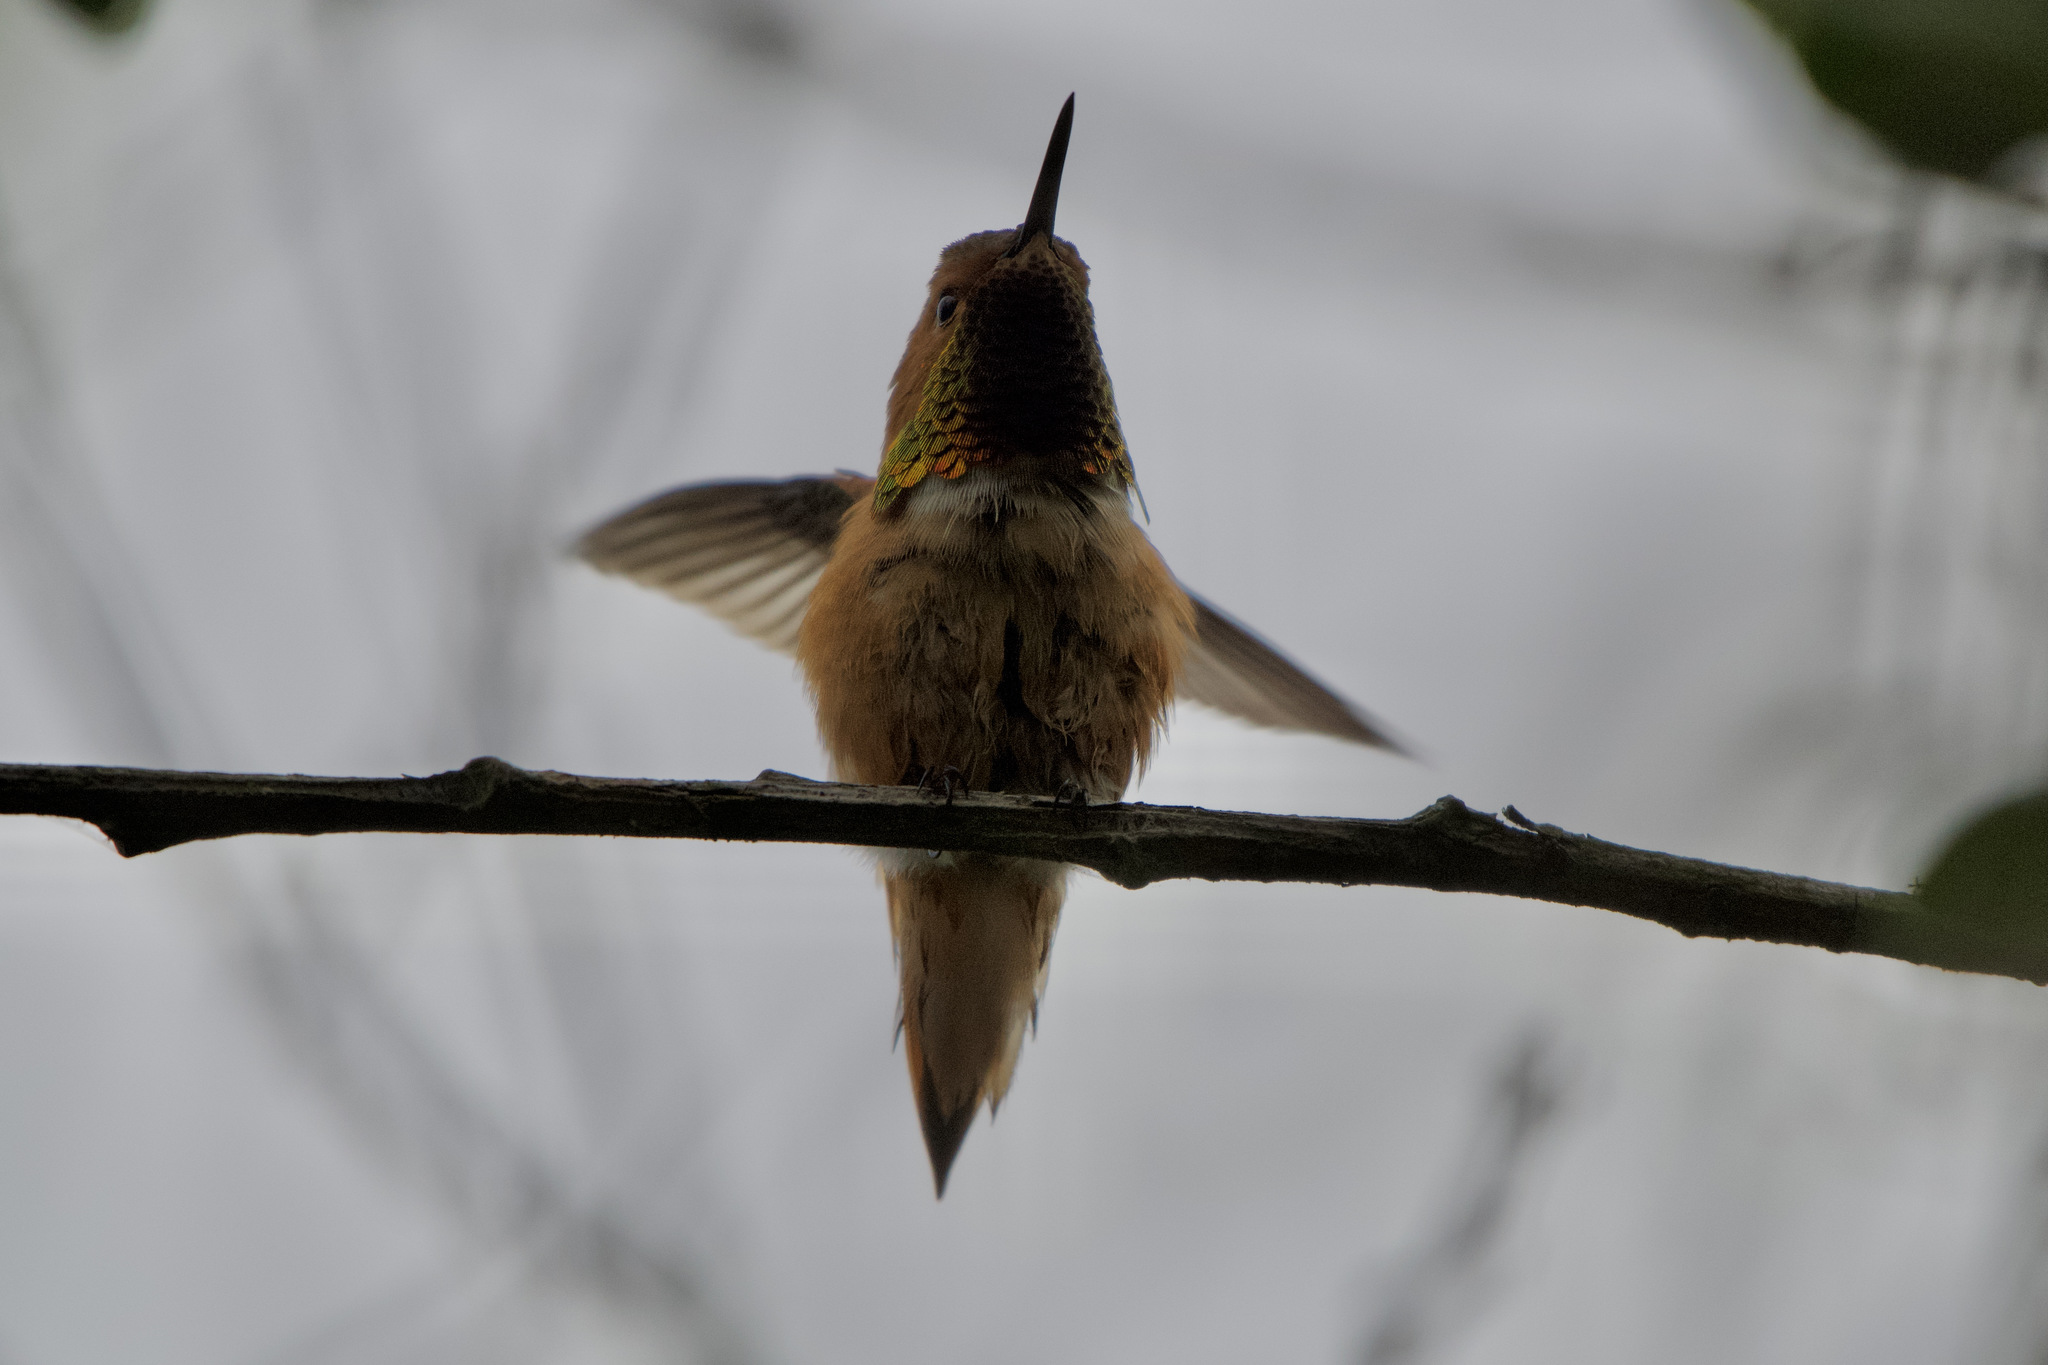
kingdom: Animalia
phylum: Chordata
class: Aves
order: Apodiformes
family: Trochilidae
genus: Selasphorus
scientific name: Selasphorus sasin
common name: Allen's hummingbird
